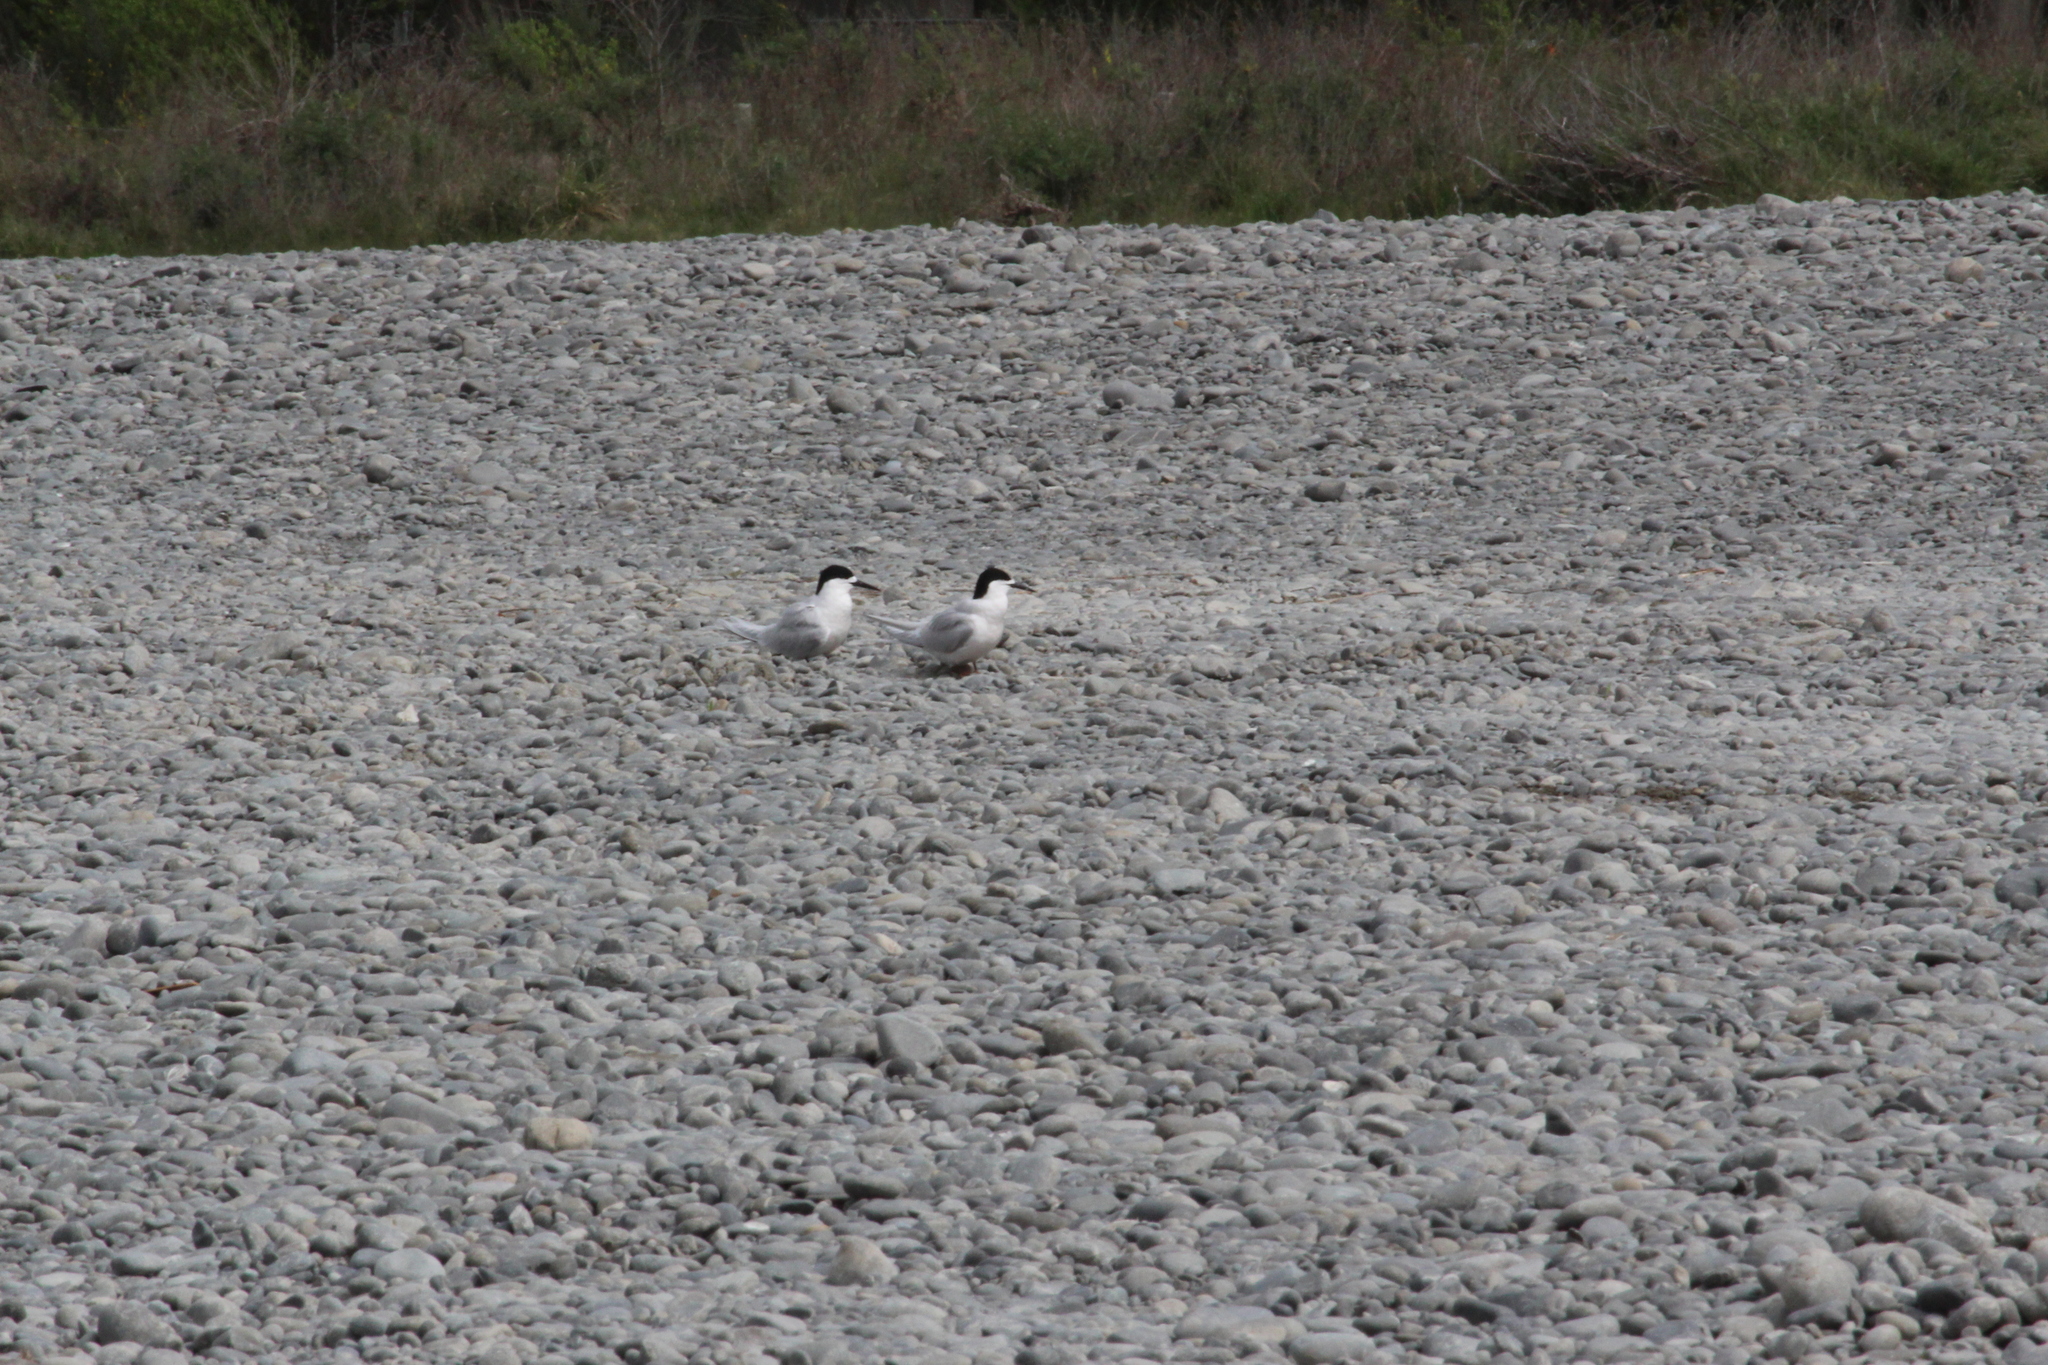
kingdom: Animalia
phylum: Chordata
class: Aves
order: Charadriiformes
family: Laridae
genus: Sterna
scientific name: Sterna striata
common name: White-fronted tern
